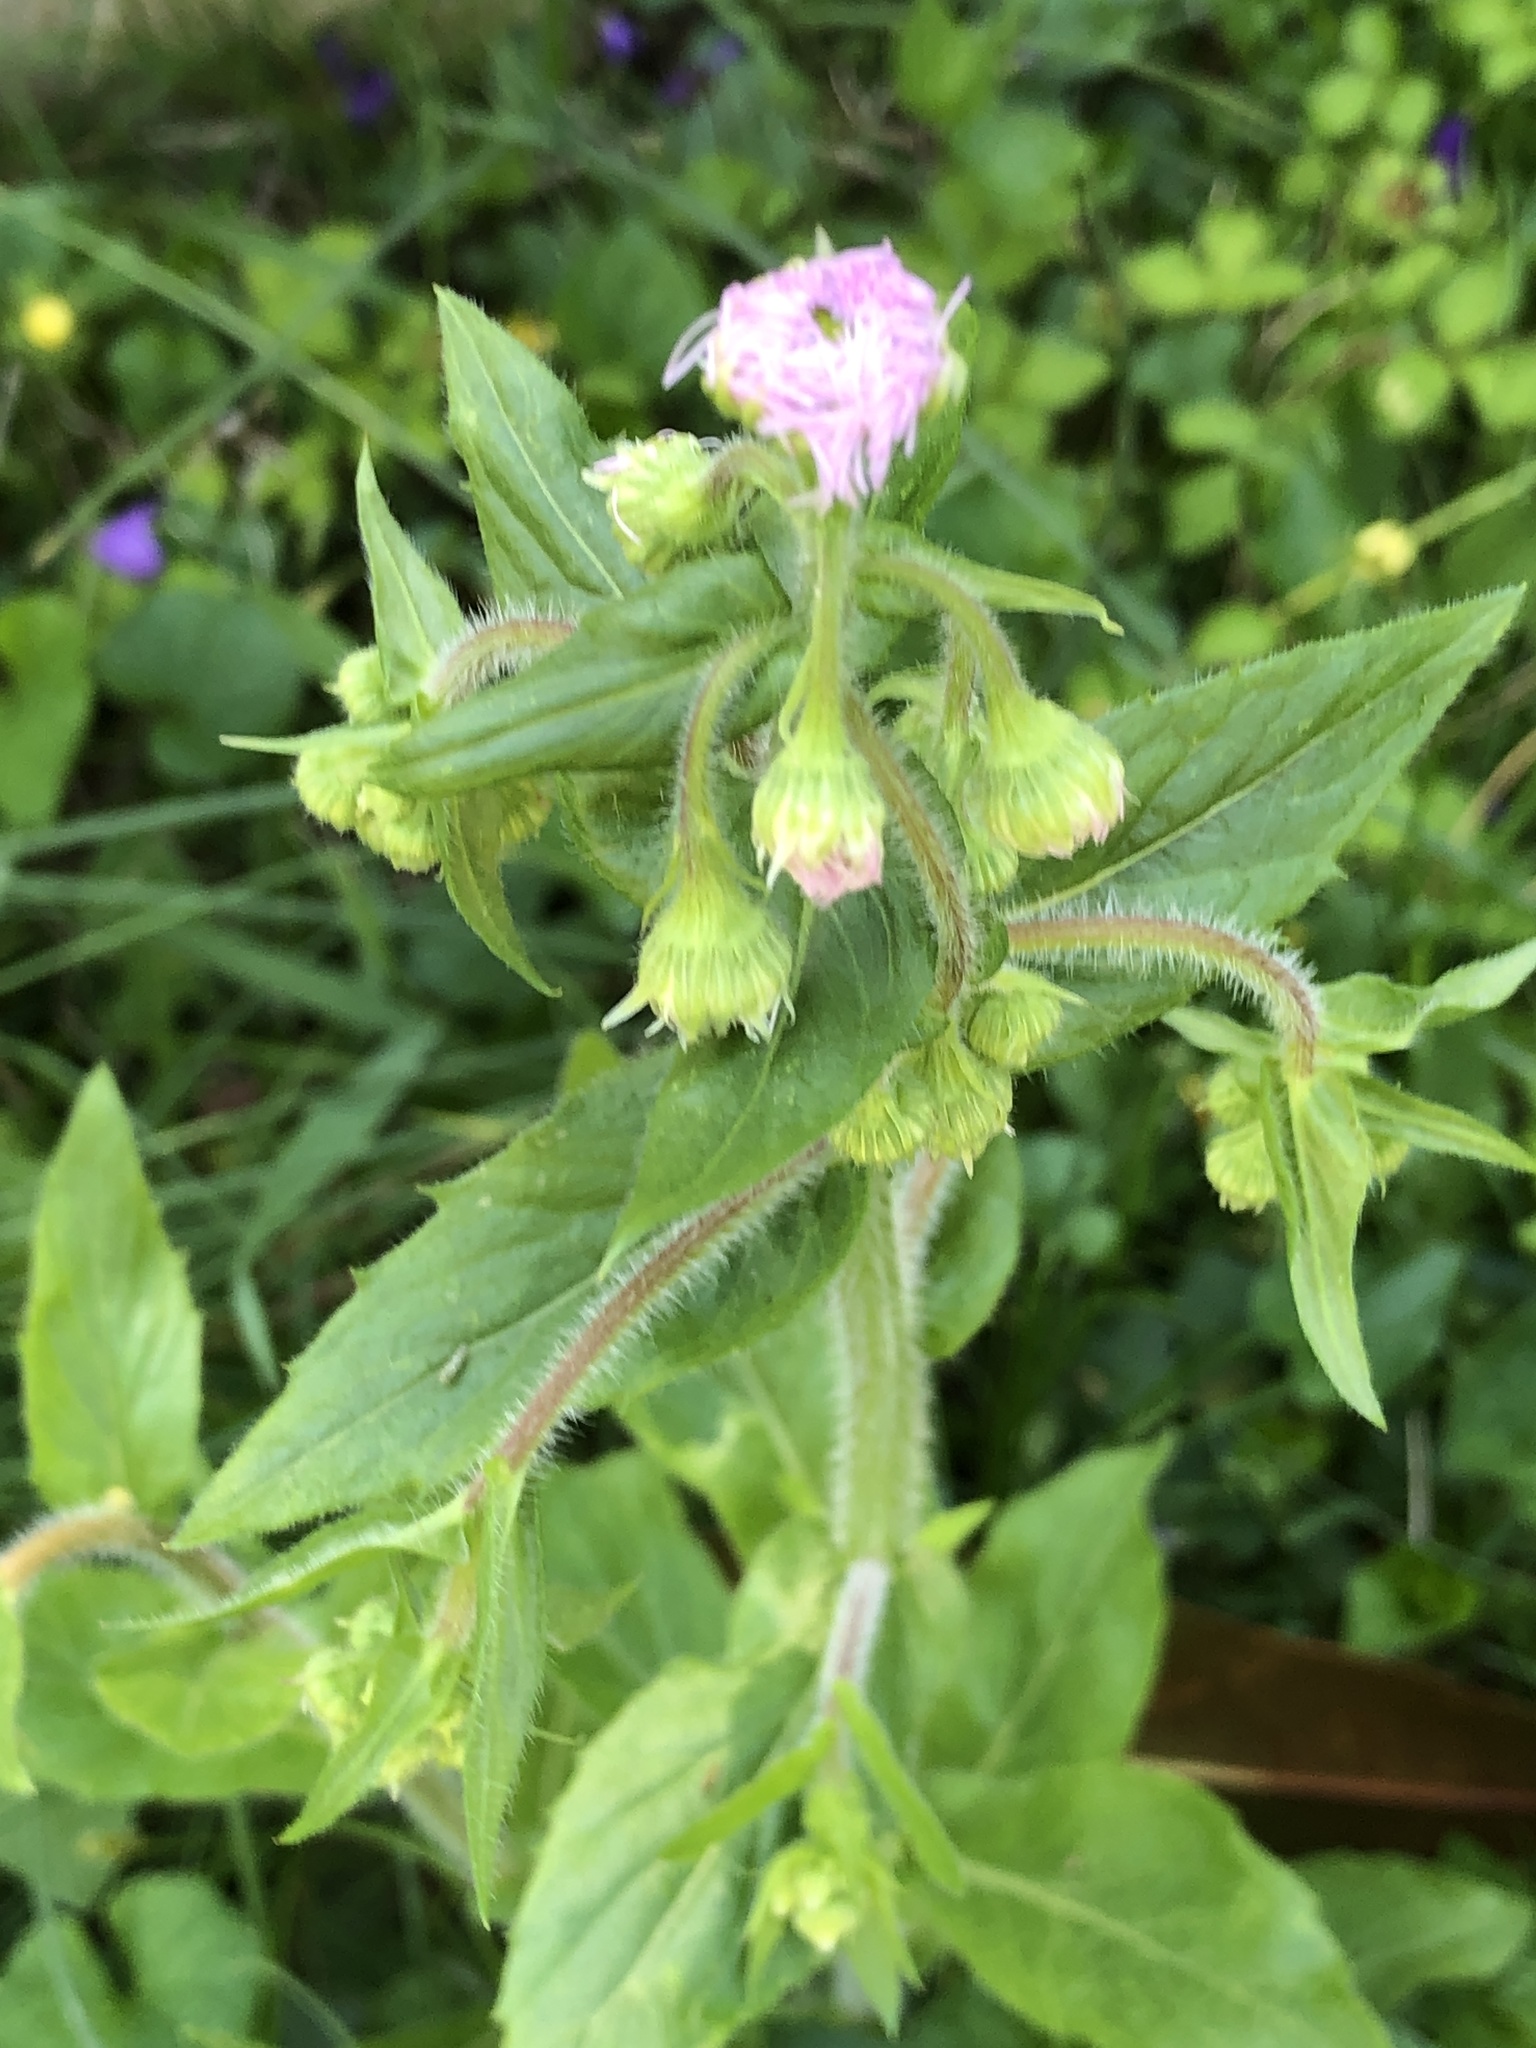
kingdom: Plantae
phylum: Tracheophyta
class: Magnoliopsida
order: Asterales
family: Asteraceae
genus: Erigeron
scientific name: Erigeron philadelphicus
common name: Robin's-plantain
